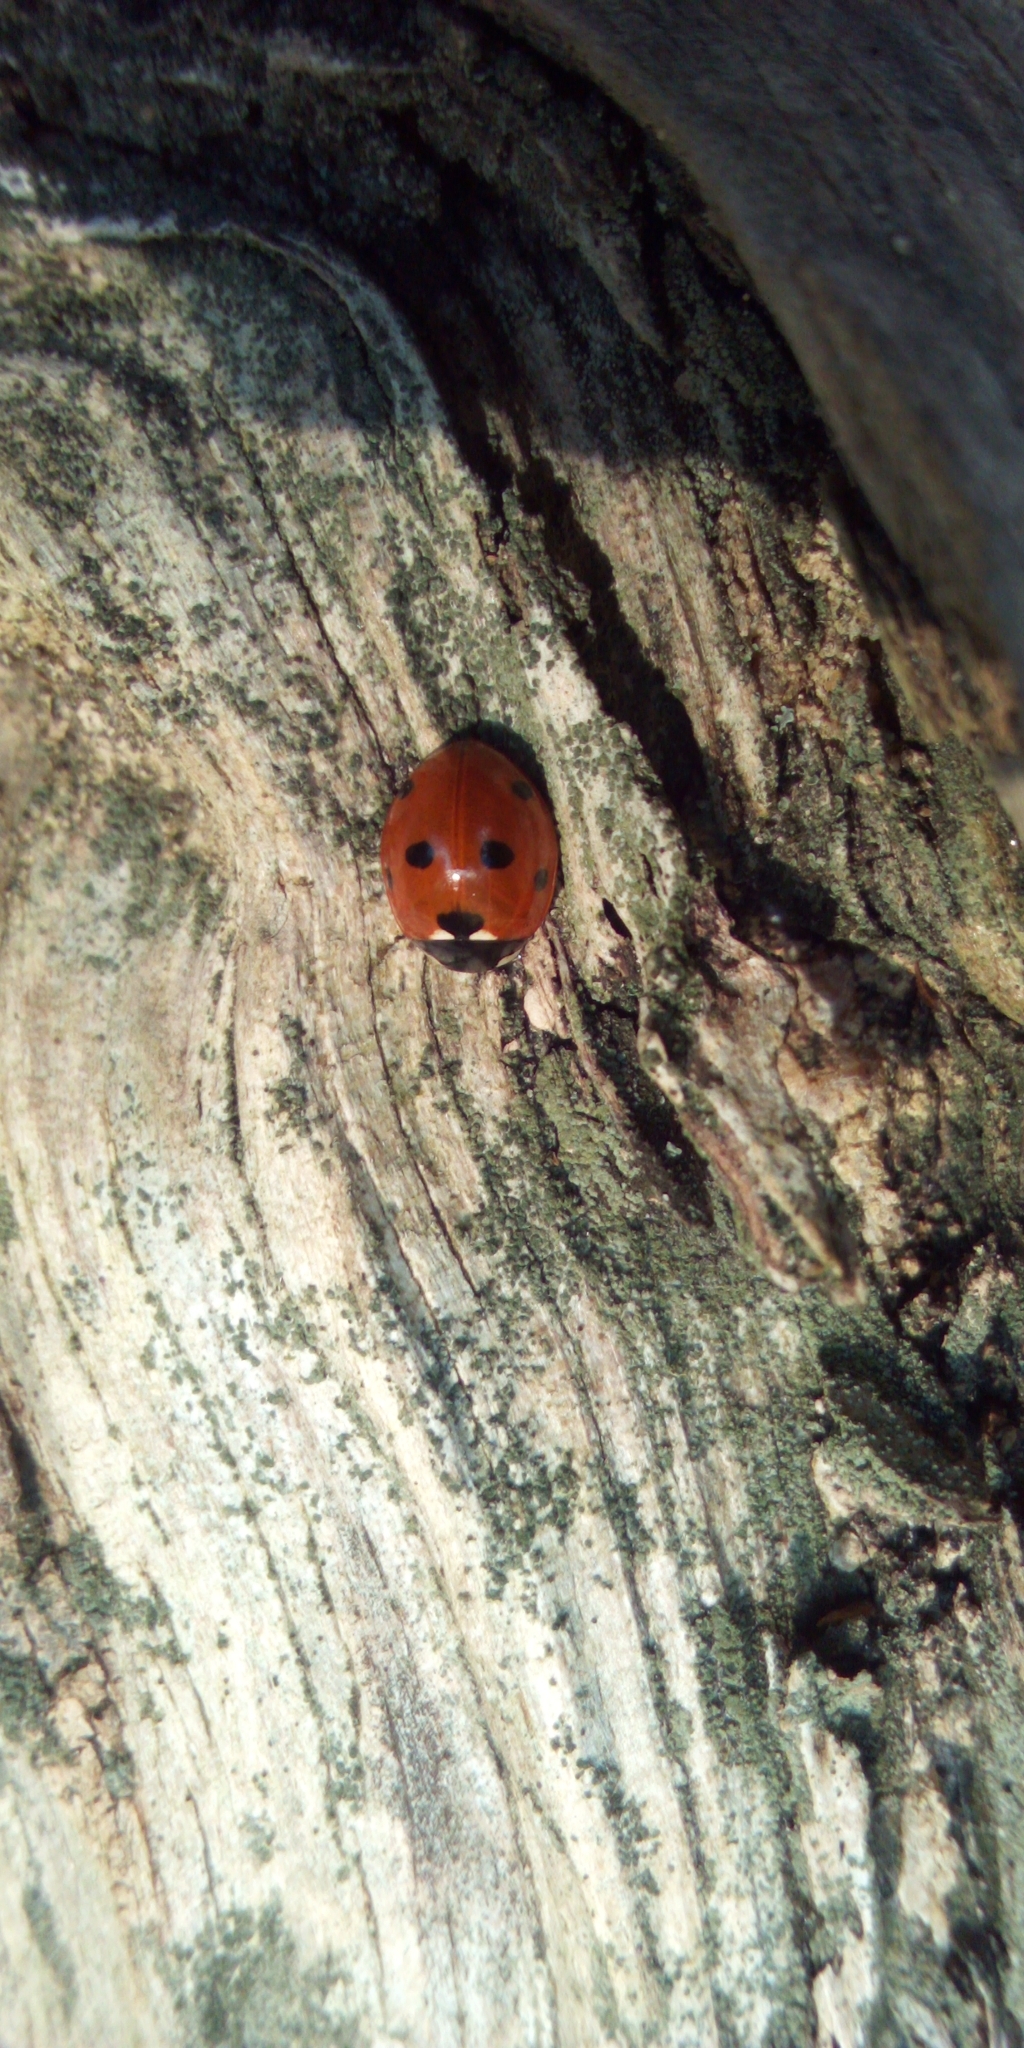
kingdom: Animalia
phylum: Arthropoda
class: Insecta
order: Coleoptera
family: Coccinellidae
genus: Coccinella
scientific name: Coccinella septempunctata
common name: Sevenspotted lady beetle
